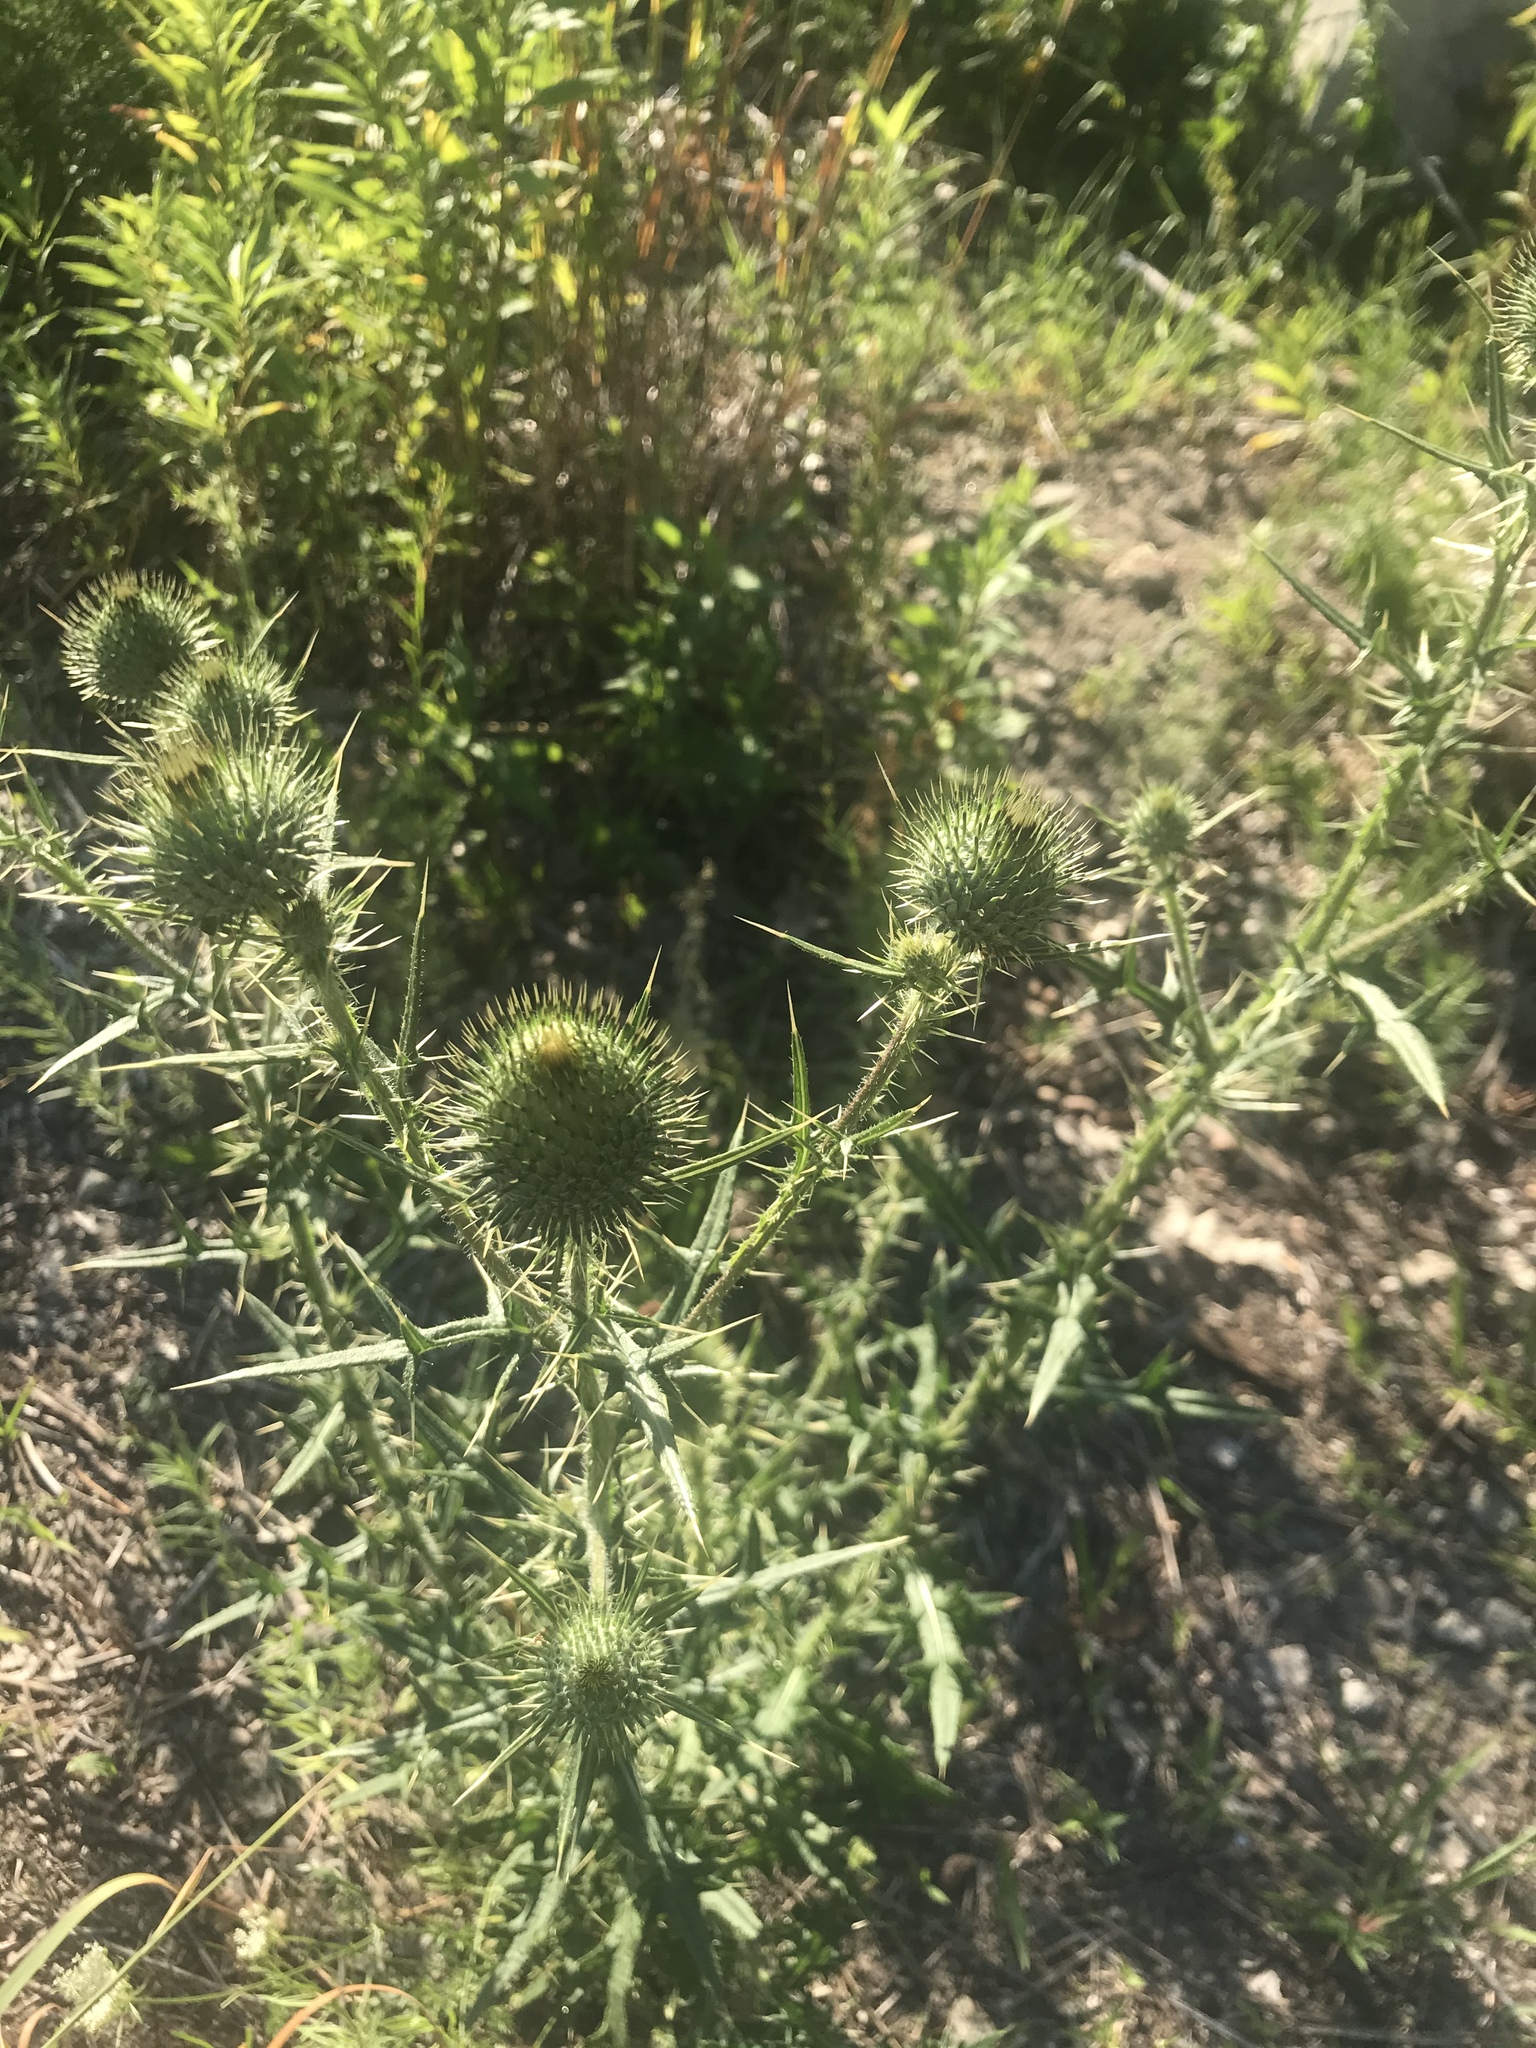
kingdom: Plantae
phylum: Tracheophyta
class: Magnoliopsida
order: Asterales
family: Asteraceae
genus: Cirsium
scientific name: Cirsium vulgare
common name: Bull thistle
